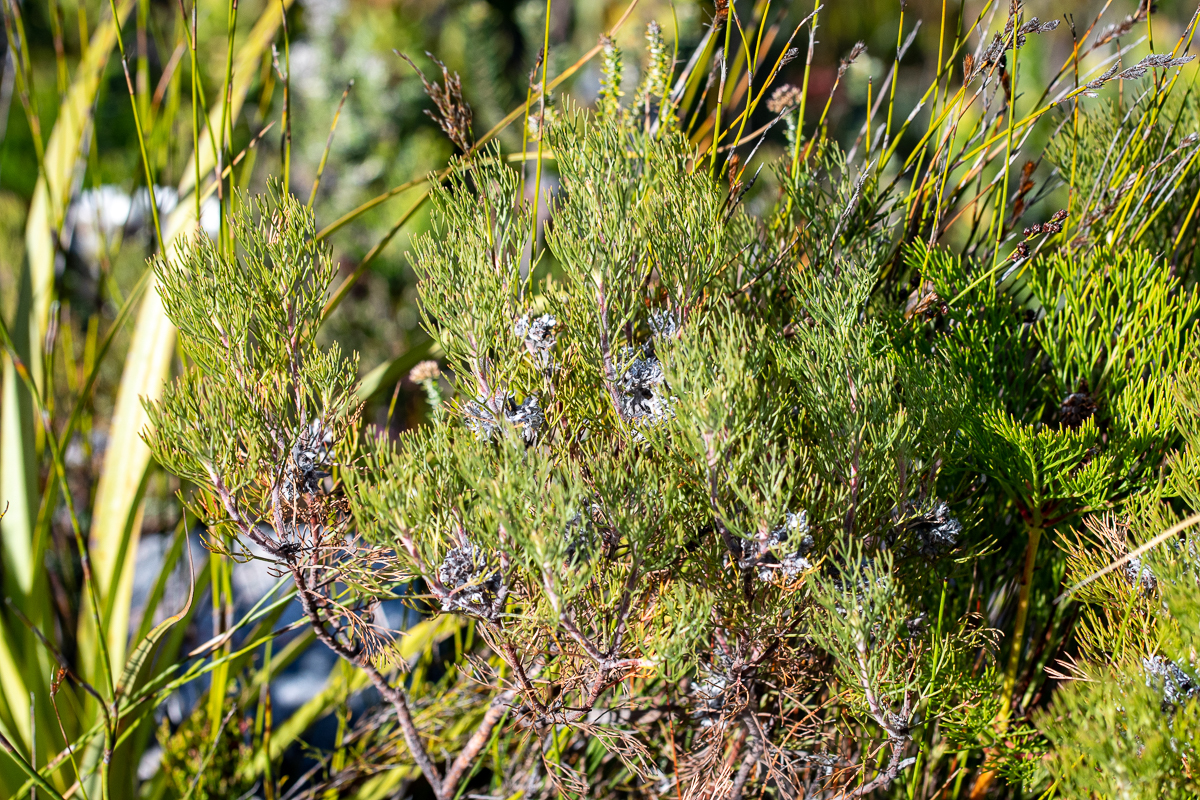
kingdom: Plantae
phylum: Tracheophyta
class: Magnoliopsida
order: Proteales
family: Proteaceae
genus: Serruria
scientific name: Serruria ascendens
